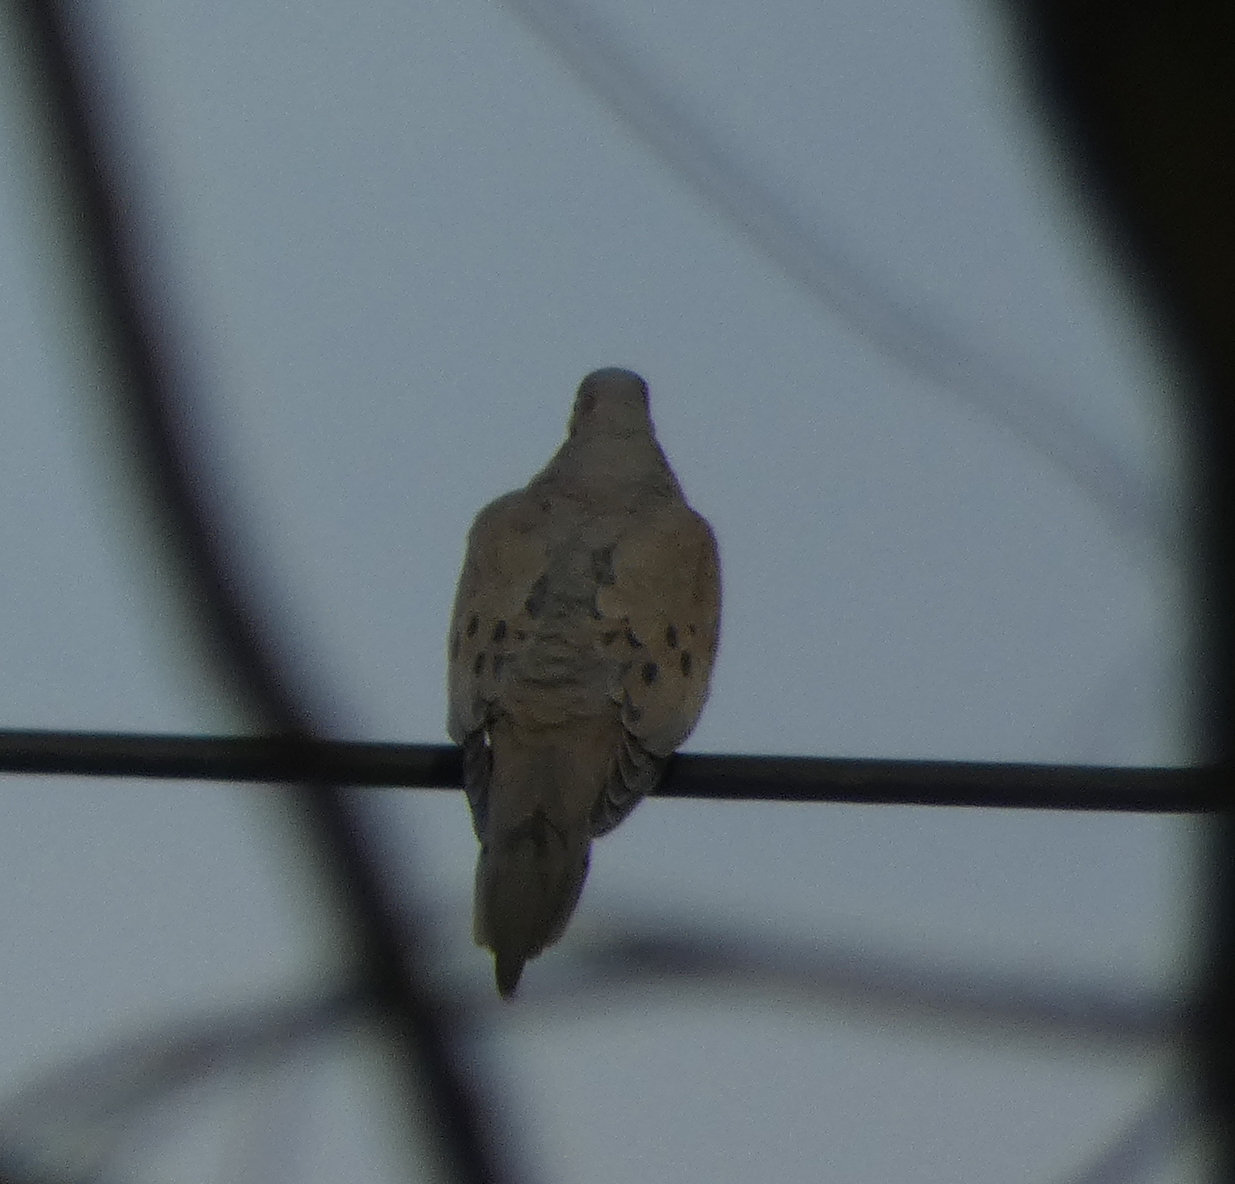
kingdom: Animalia
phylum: Chordata
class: Aves
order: Columbiformes
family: Columbidae
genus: Zenaida
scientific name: Zenaida macroura
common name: Mourning dove
